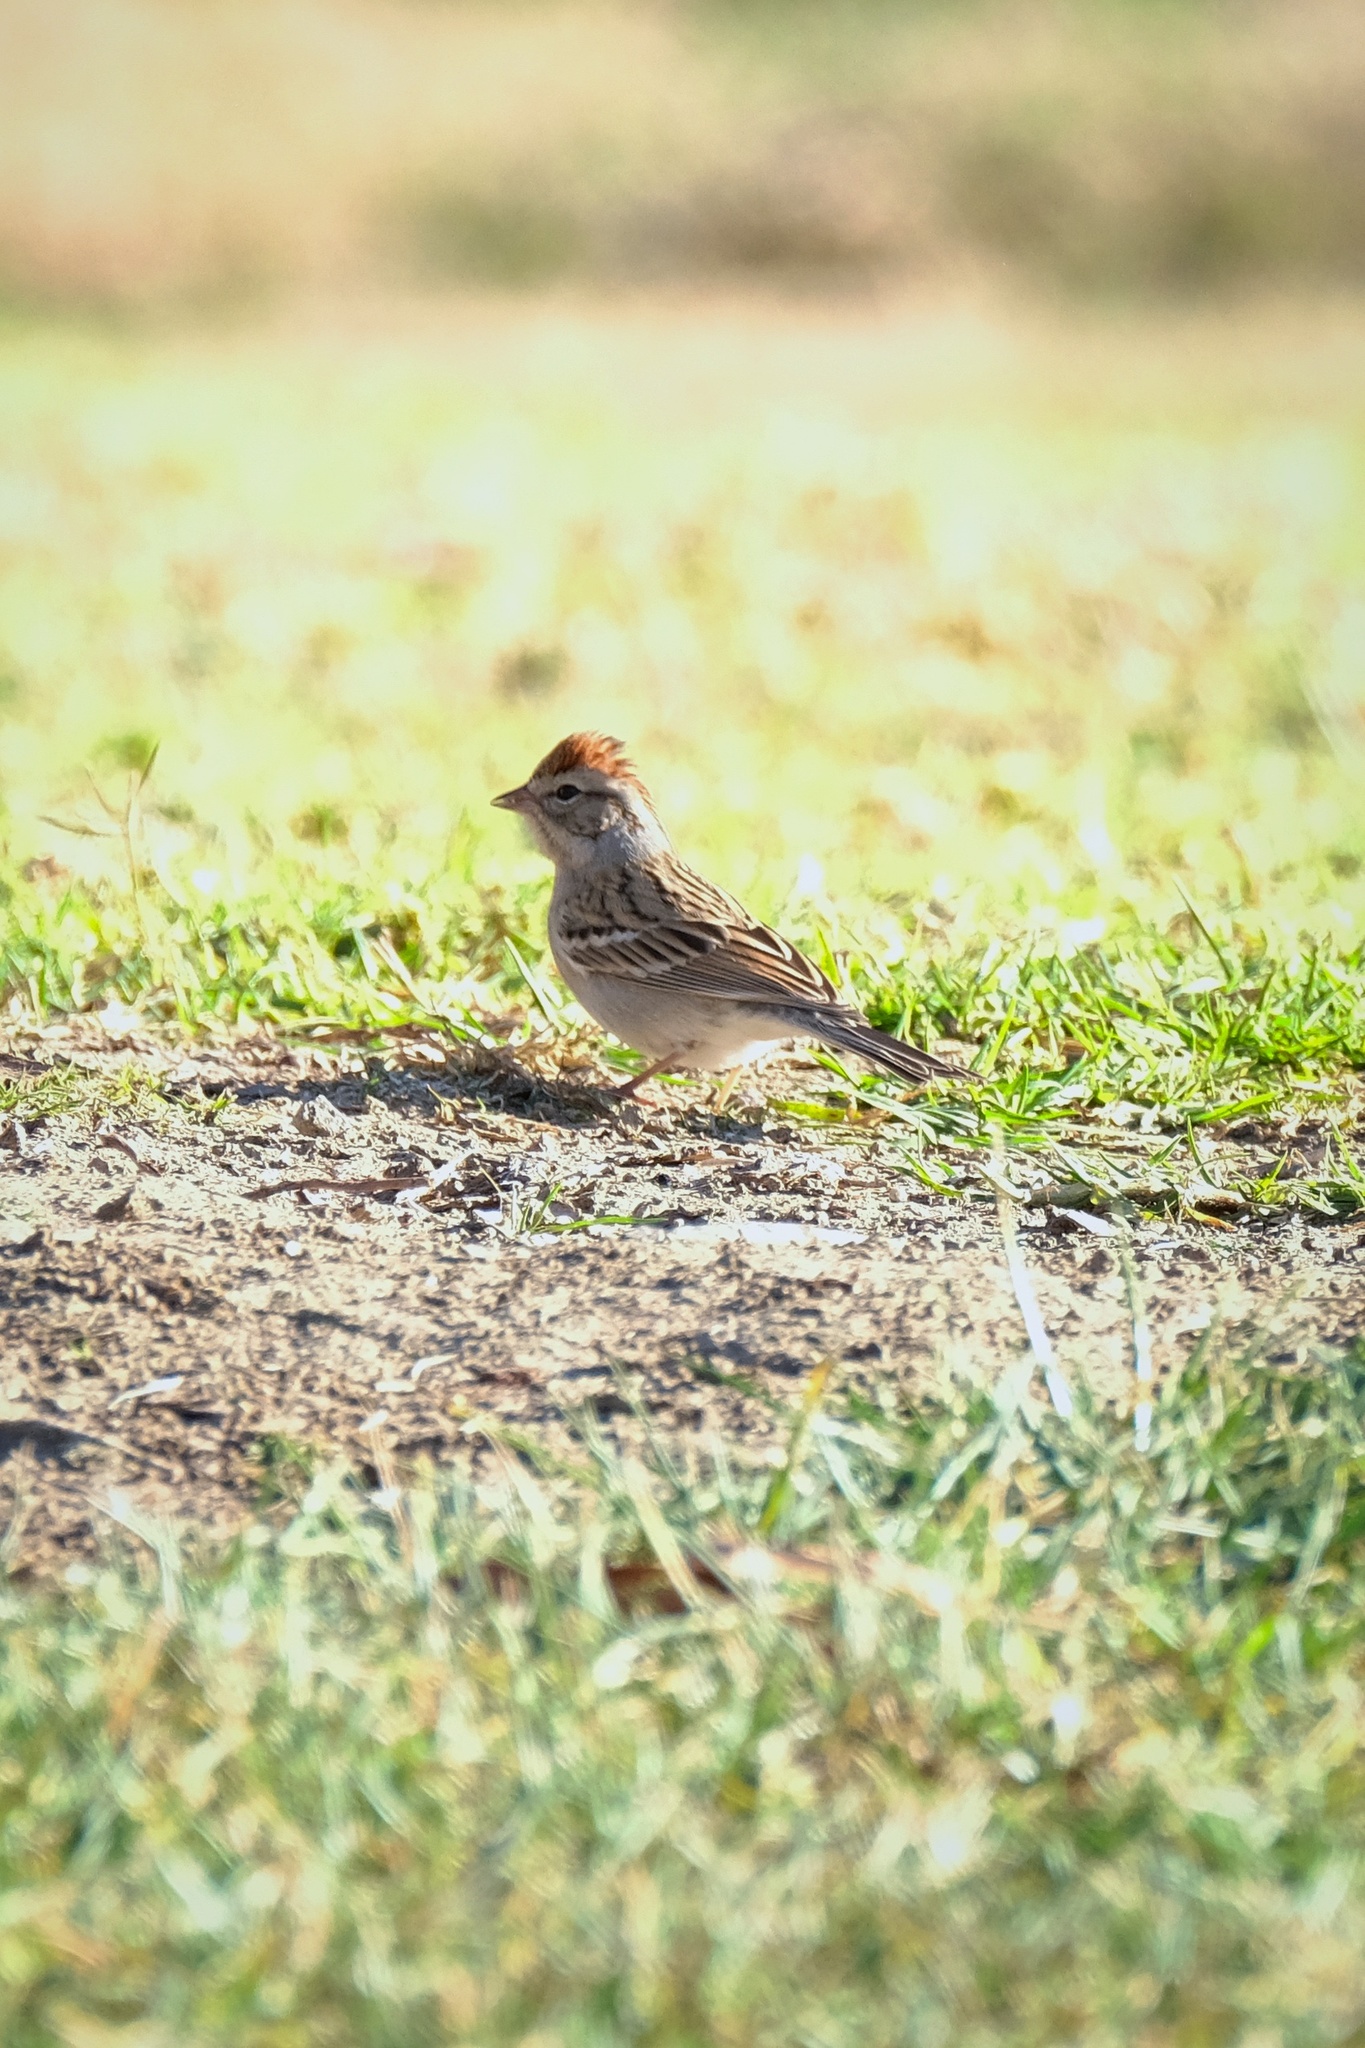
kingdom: Animalia
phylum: Chordata
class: Aves
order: Passeriformes
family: Passerellidae
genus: Spizella
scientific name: Spizella passerina
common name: Chipping sparrow
